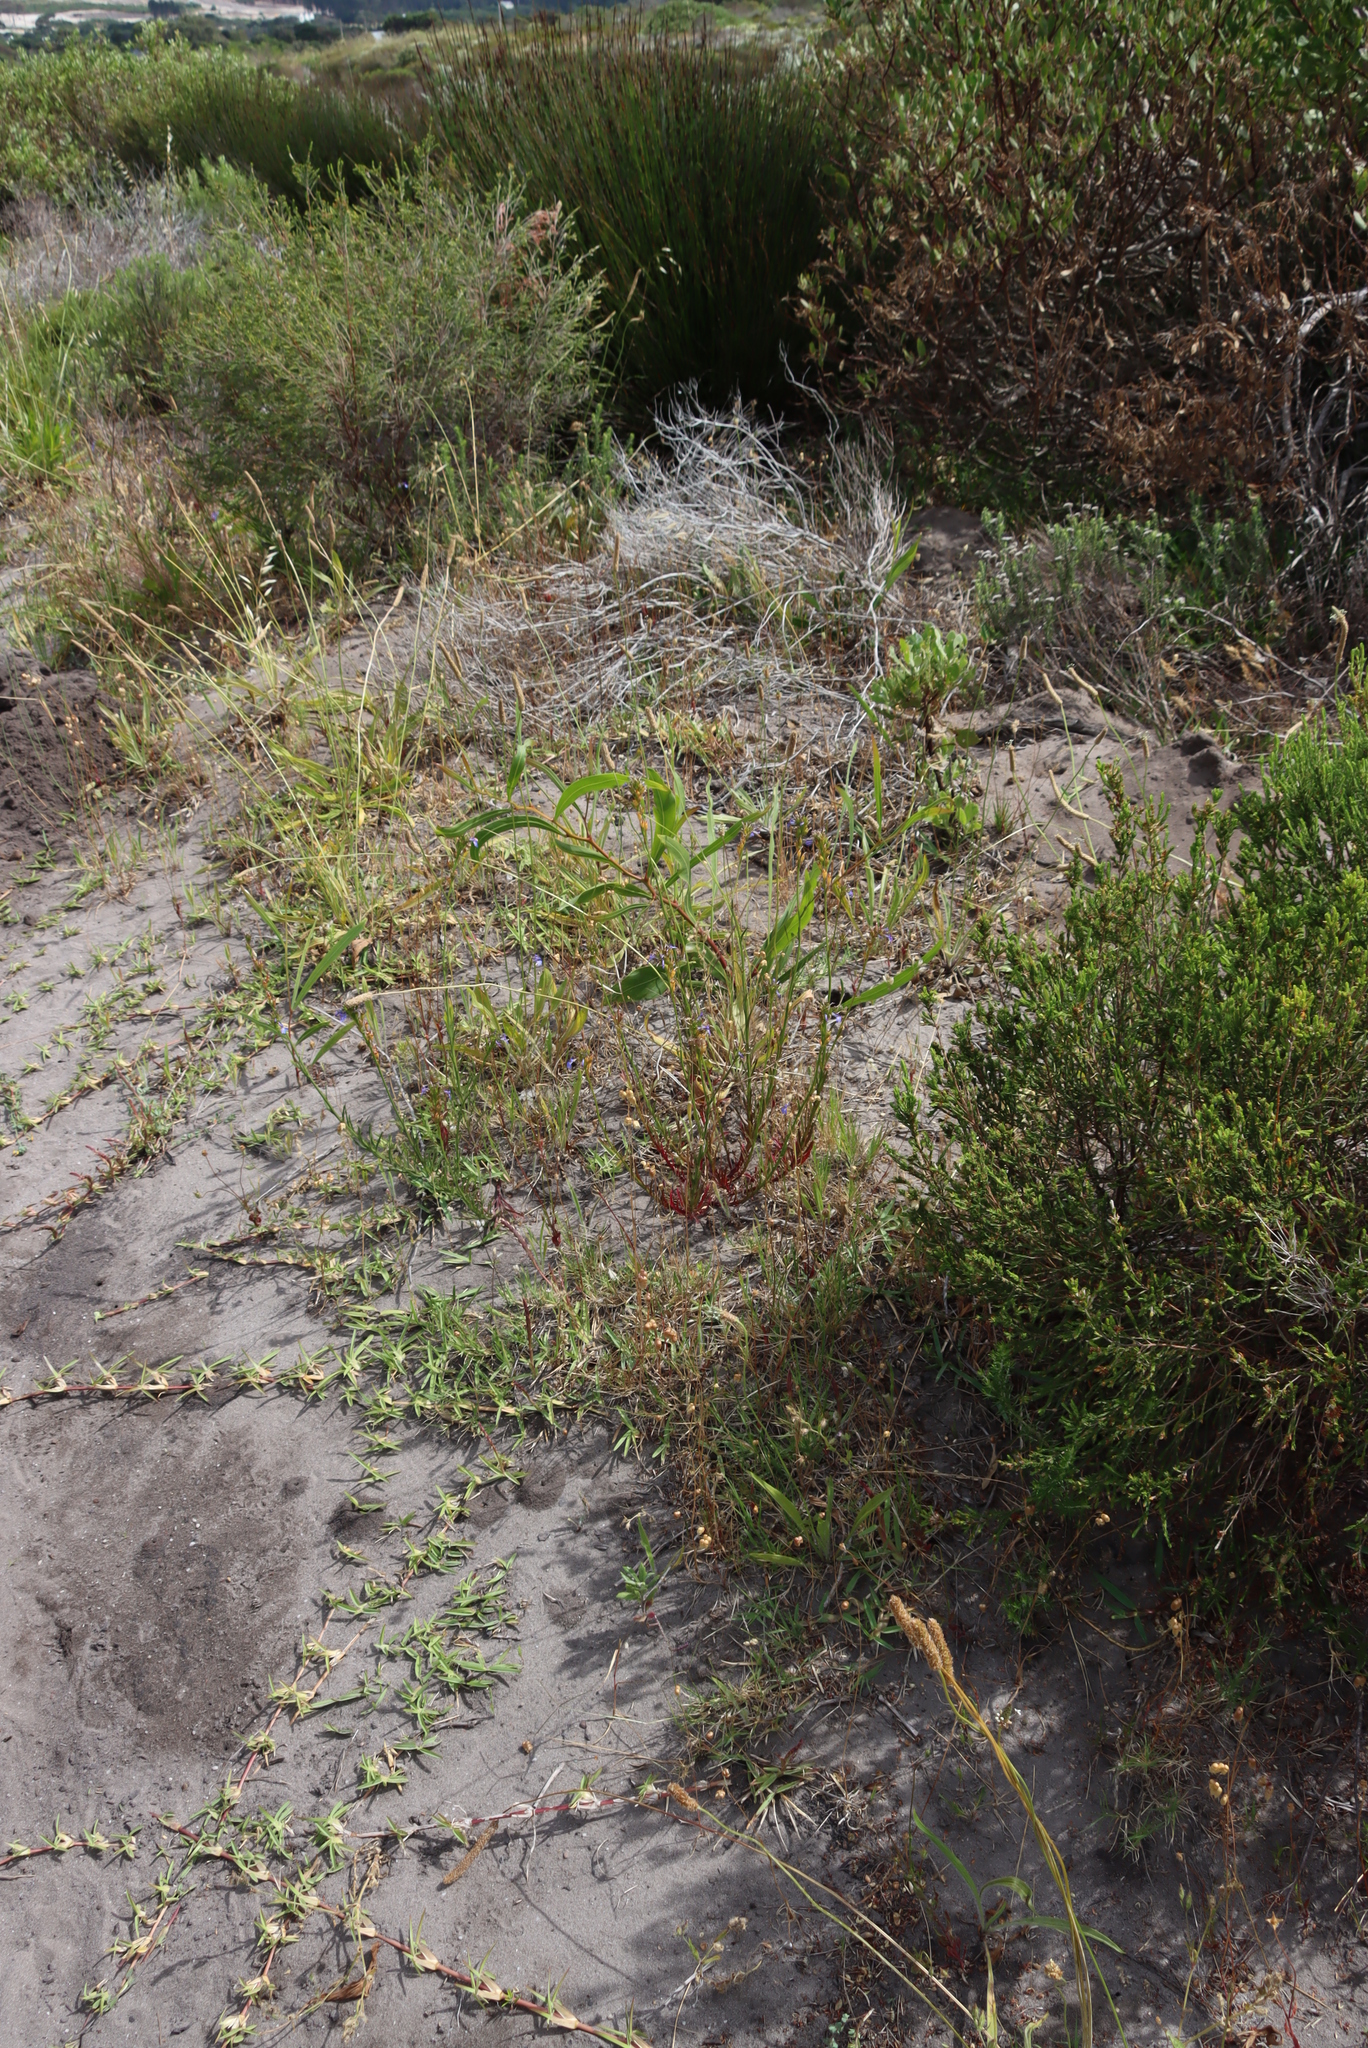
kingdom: Plantae
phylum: Tracheophyta
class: Magnoliopsida
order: Asterales
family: Campanulaceae
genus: Lobelia
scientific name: Lobelia comosa
